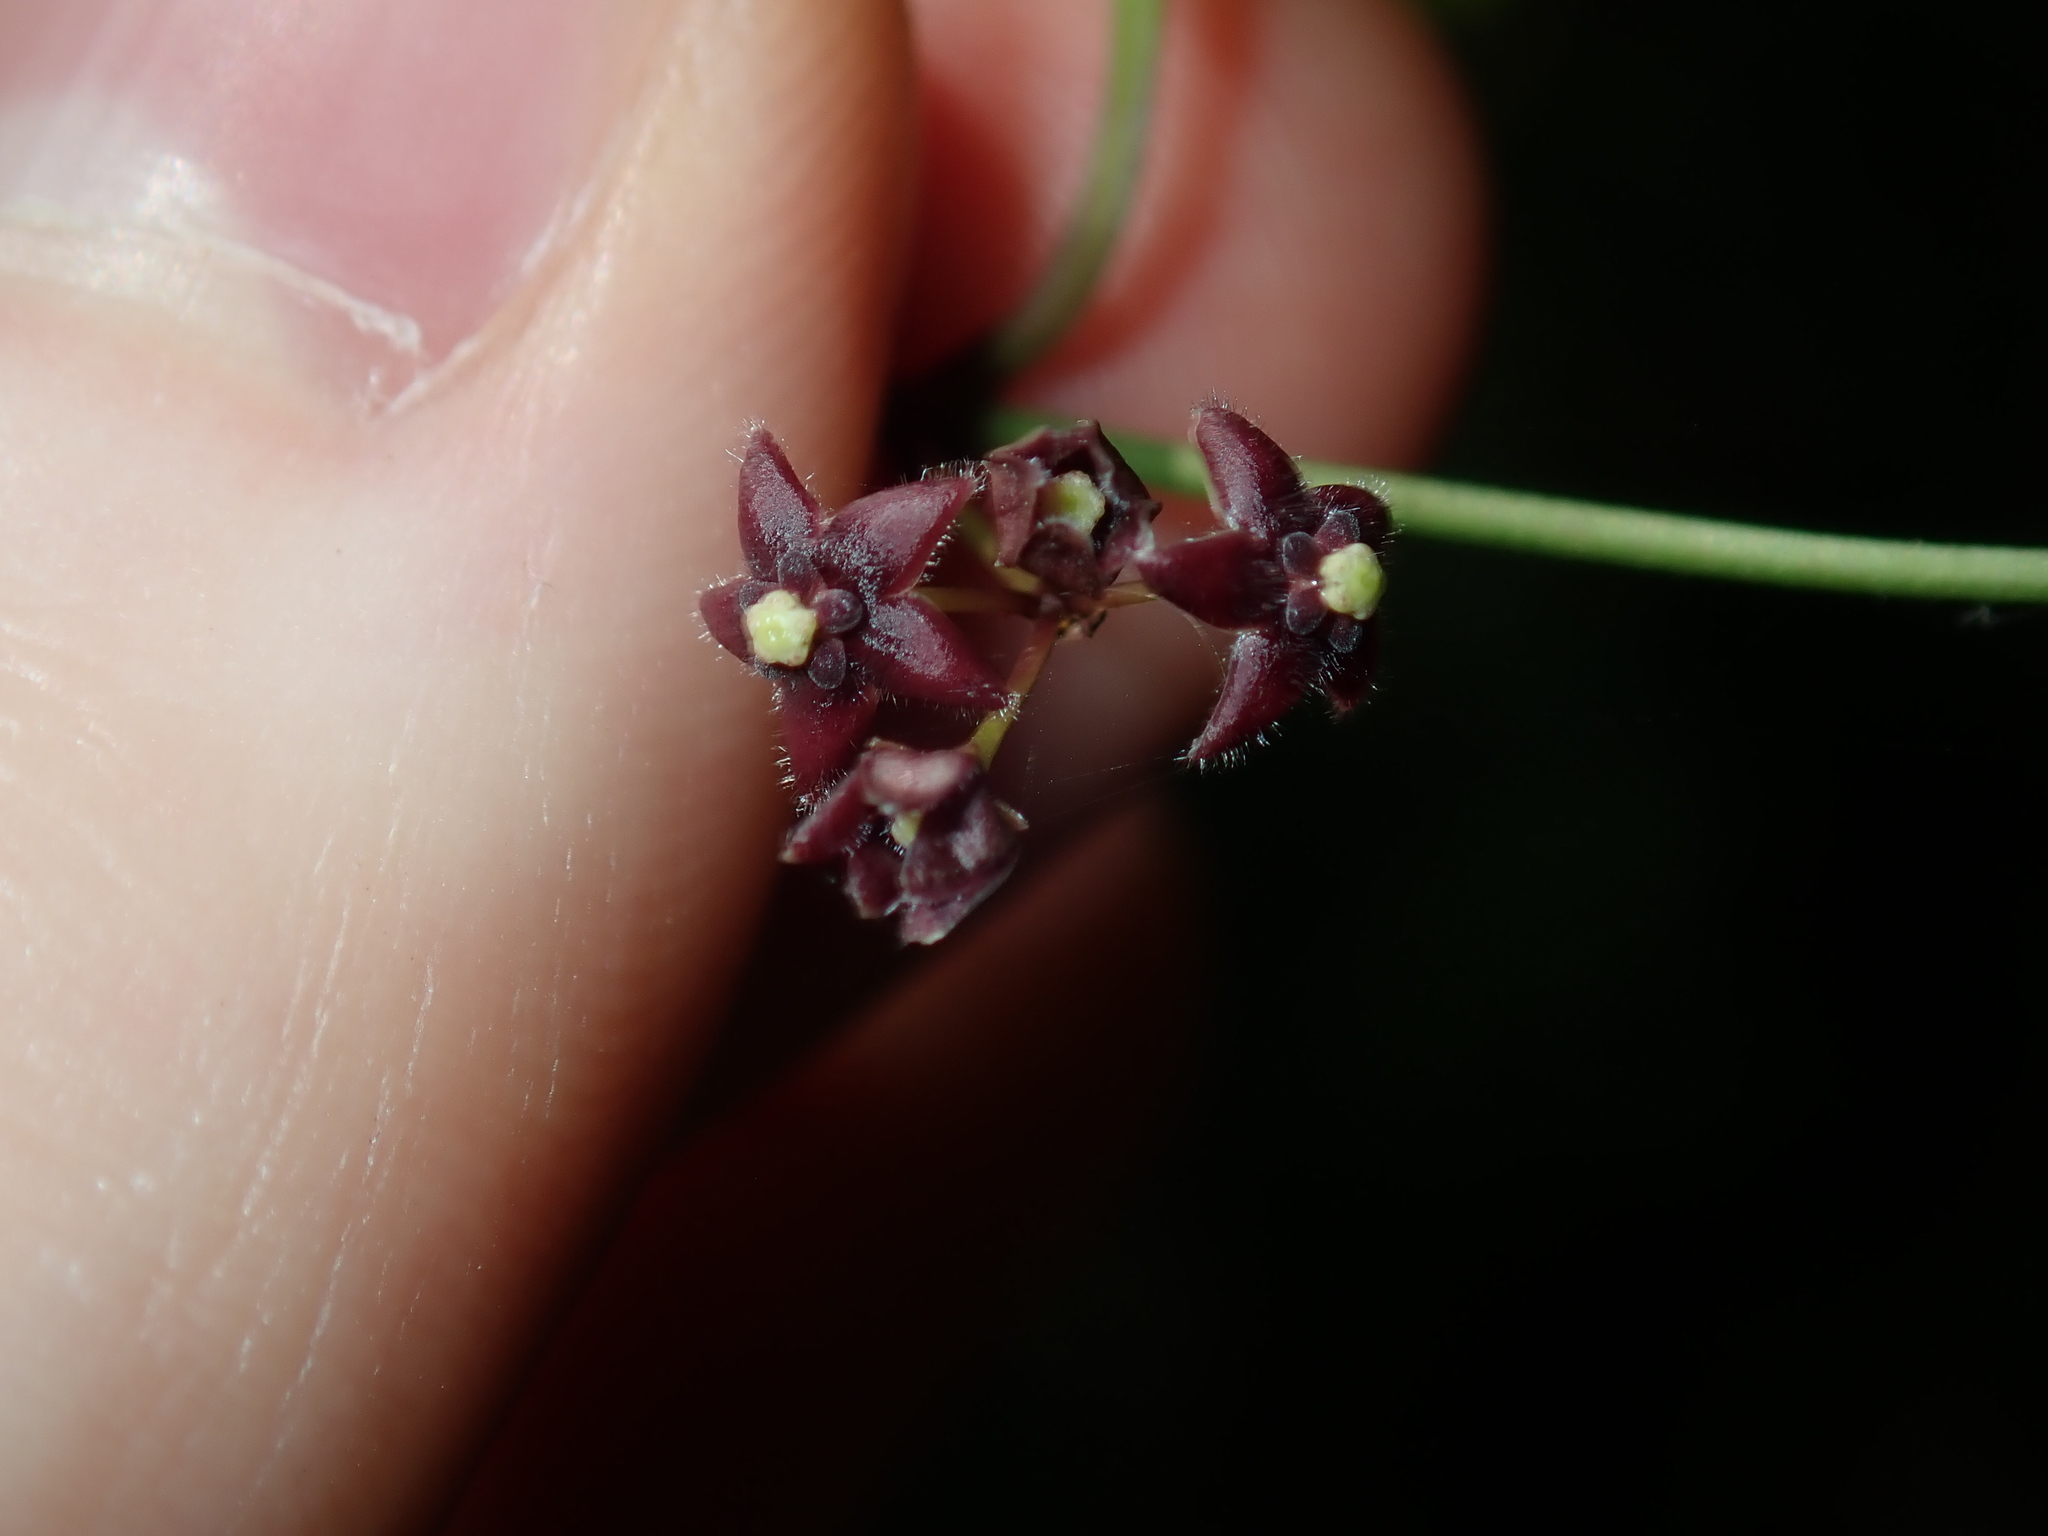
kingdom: Plantae
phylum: Tracheophyta
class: Magnoliopsida
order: Gentianales
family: Apocynaceae
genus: Vincetoxicum
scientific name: Vincetoxicum barbatum
